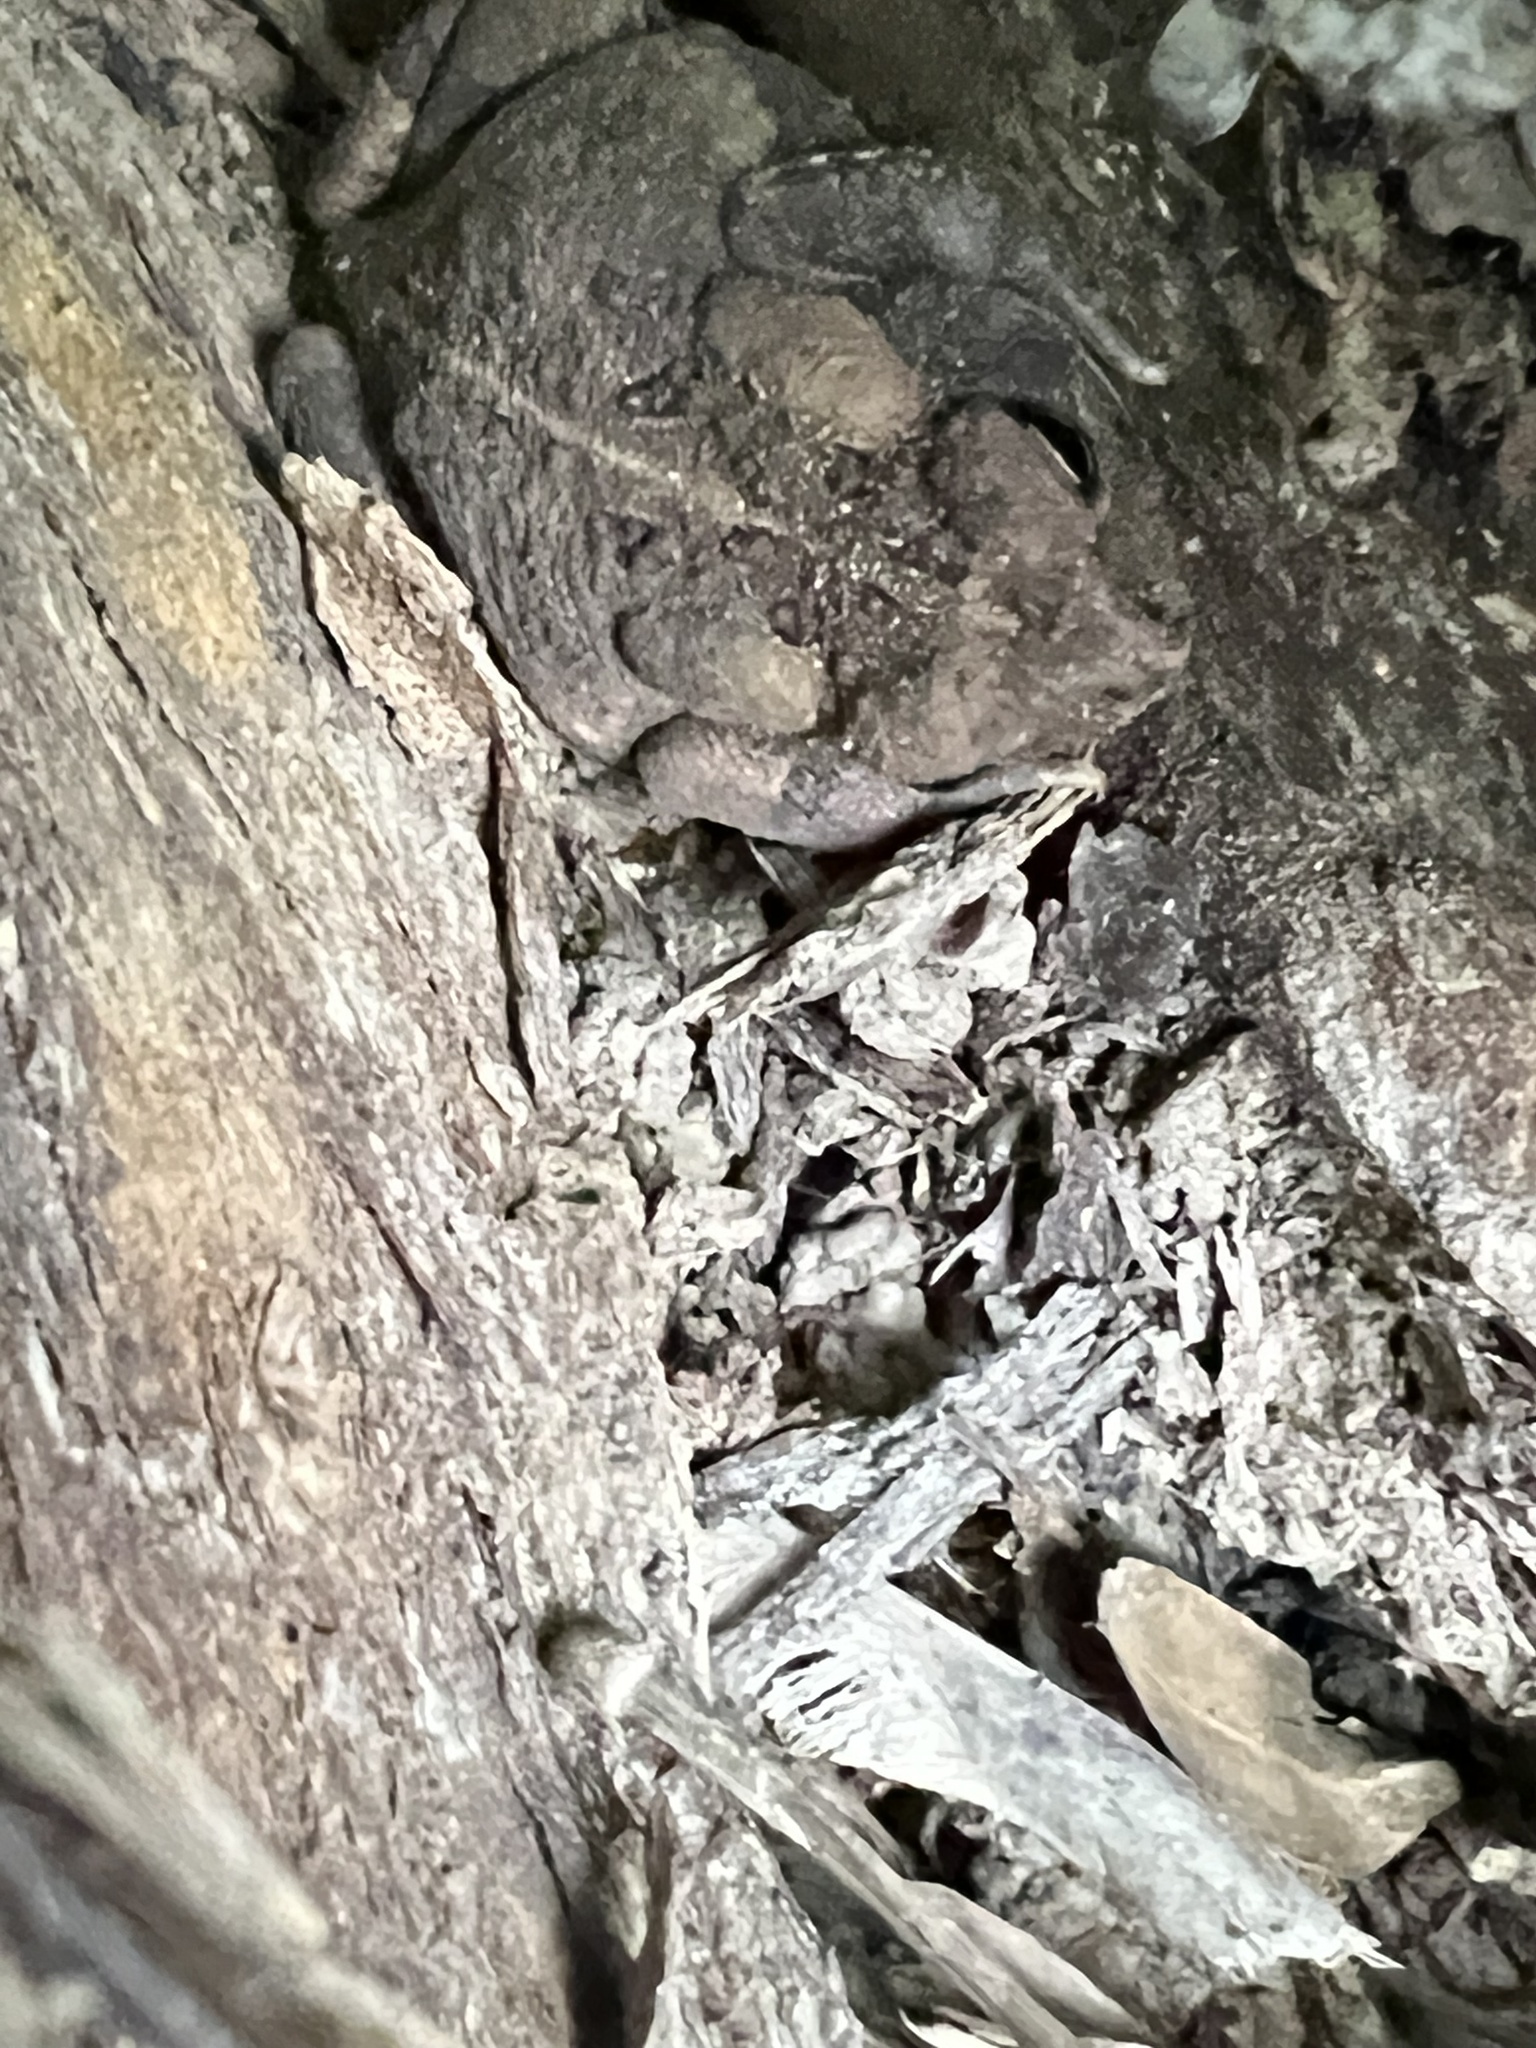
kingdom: Animalia
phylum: Chordata
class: Amphibia
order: Anura
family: Bufonidae
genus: Anaxyrus
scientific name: Anaxyrus americanus
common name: American toad
